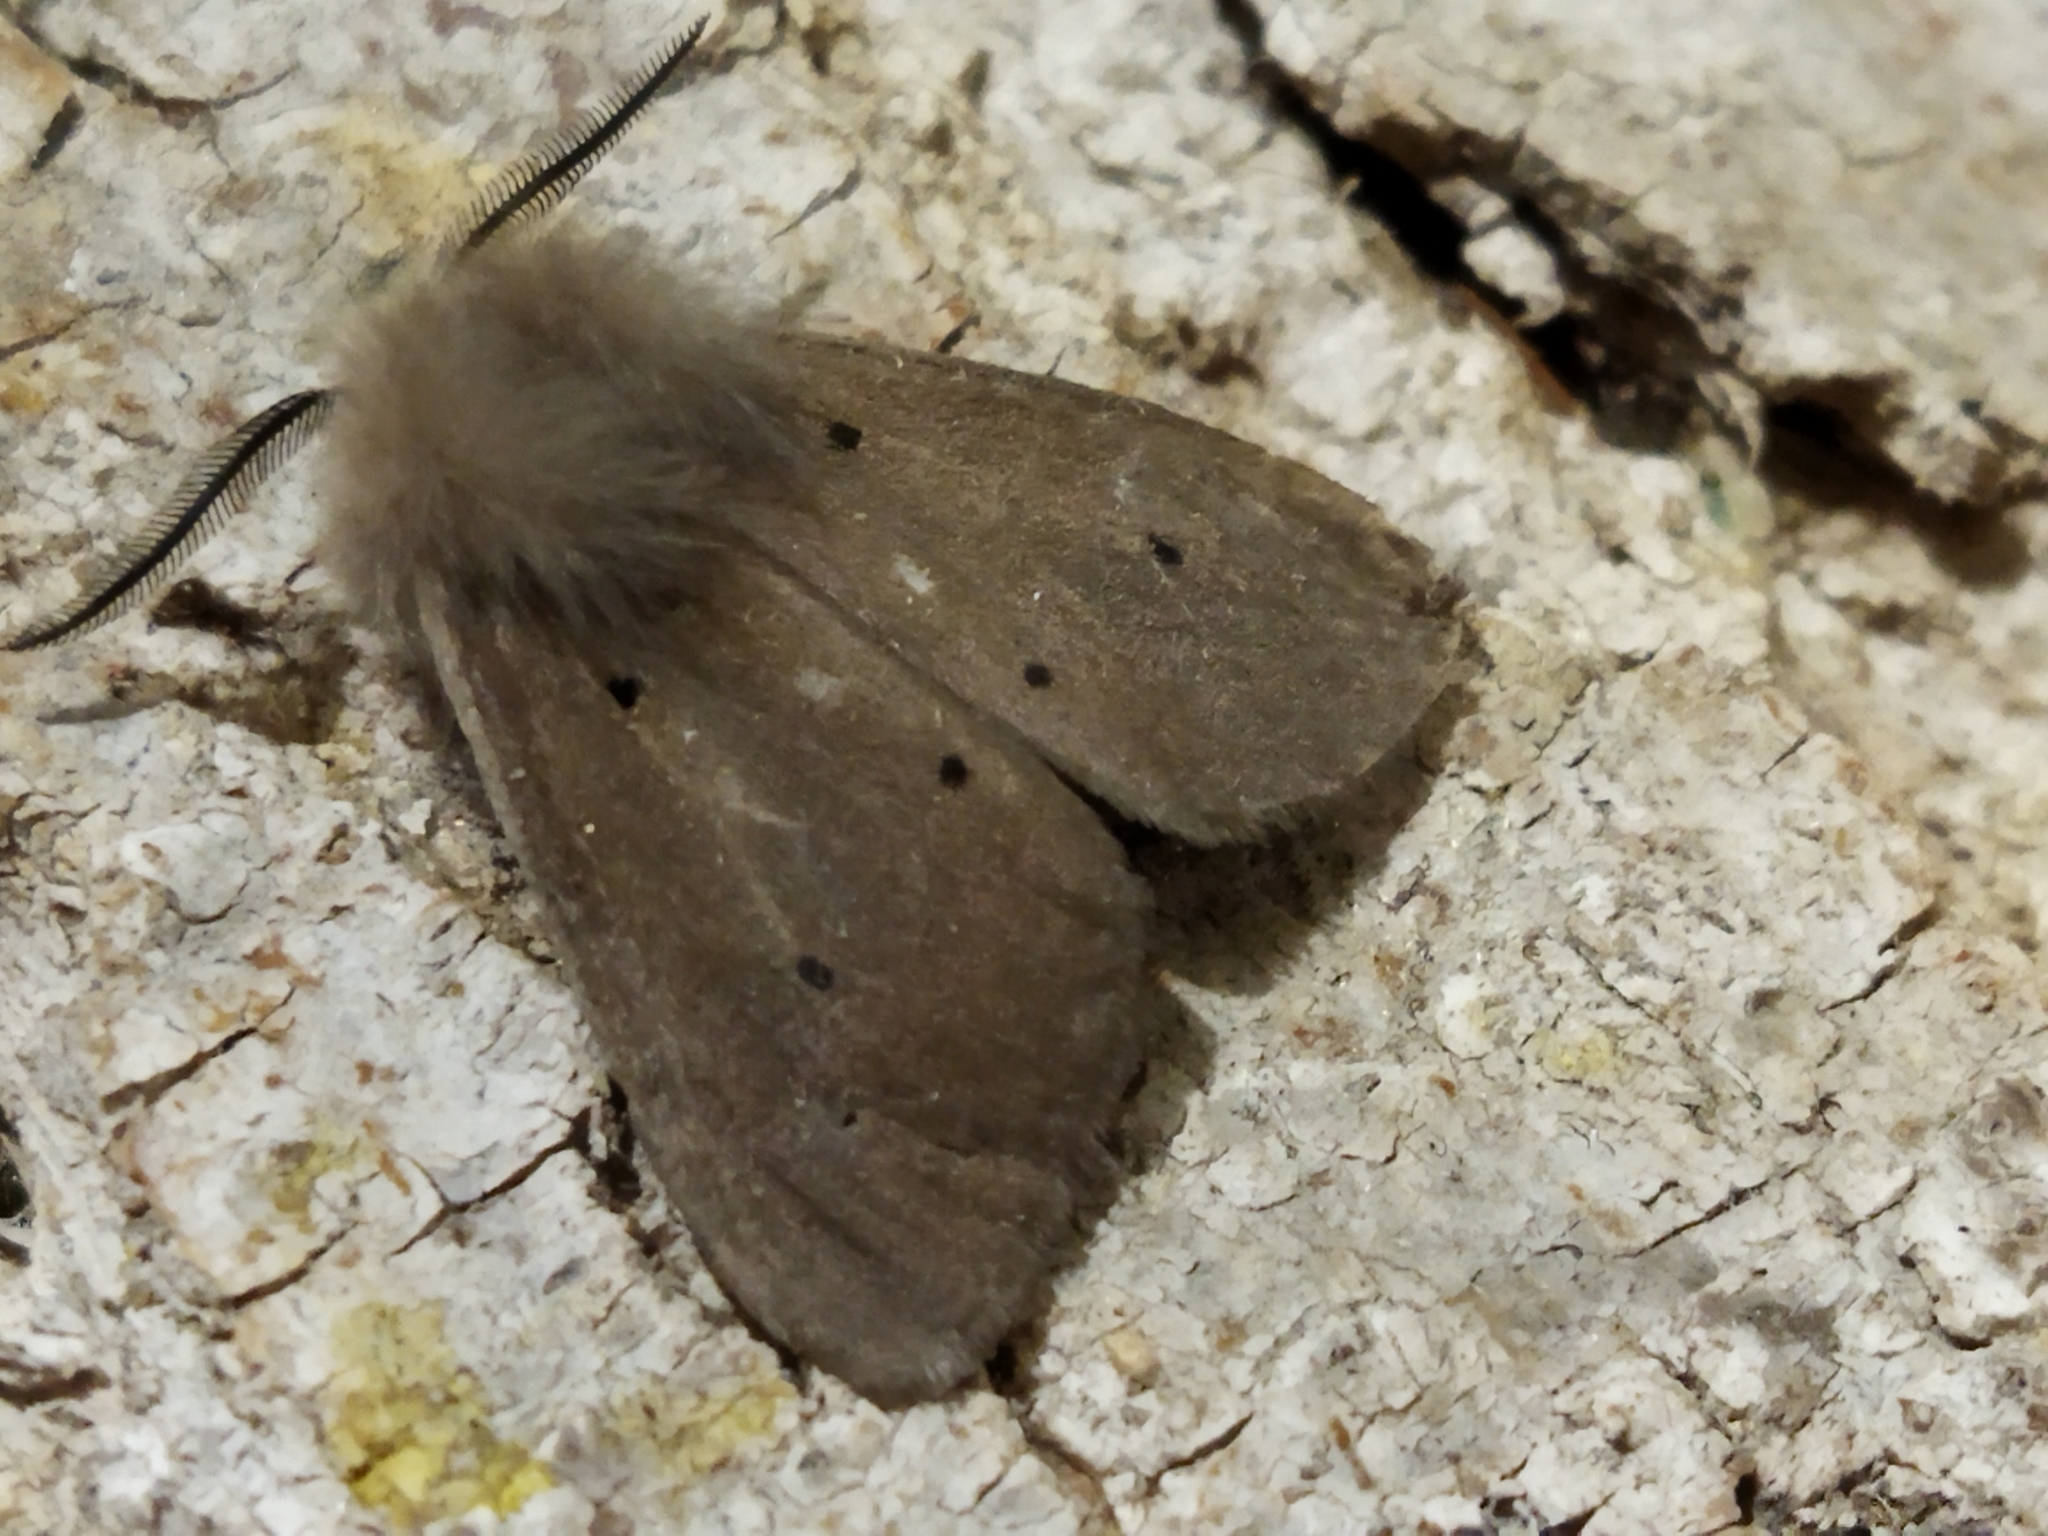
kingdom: Animalia
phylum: Arthropoda
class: Insecta
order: Lepidoptera
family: Erebidae
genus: Diaphora
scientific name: Diaphora mendica
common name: Muslin moth
